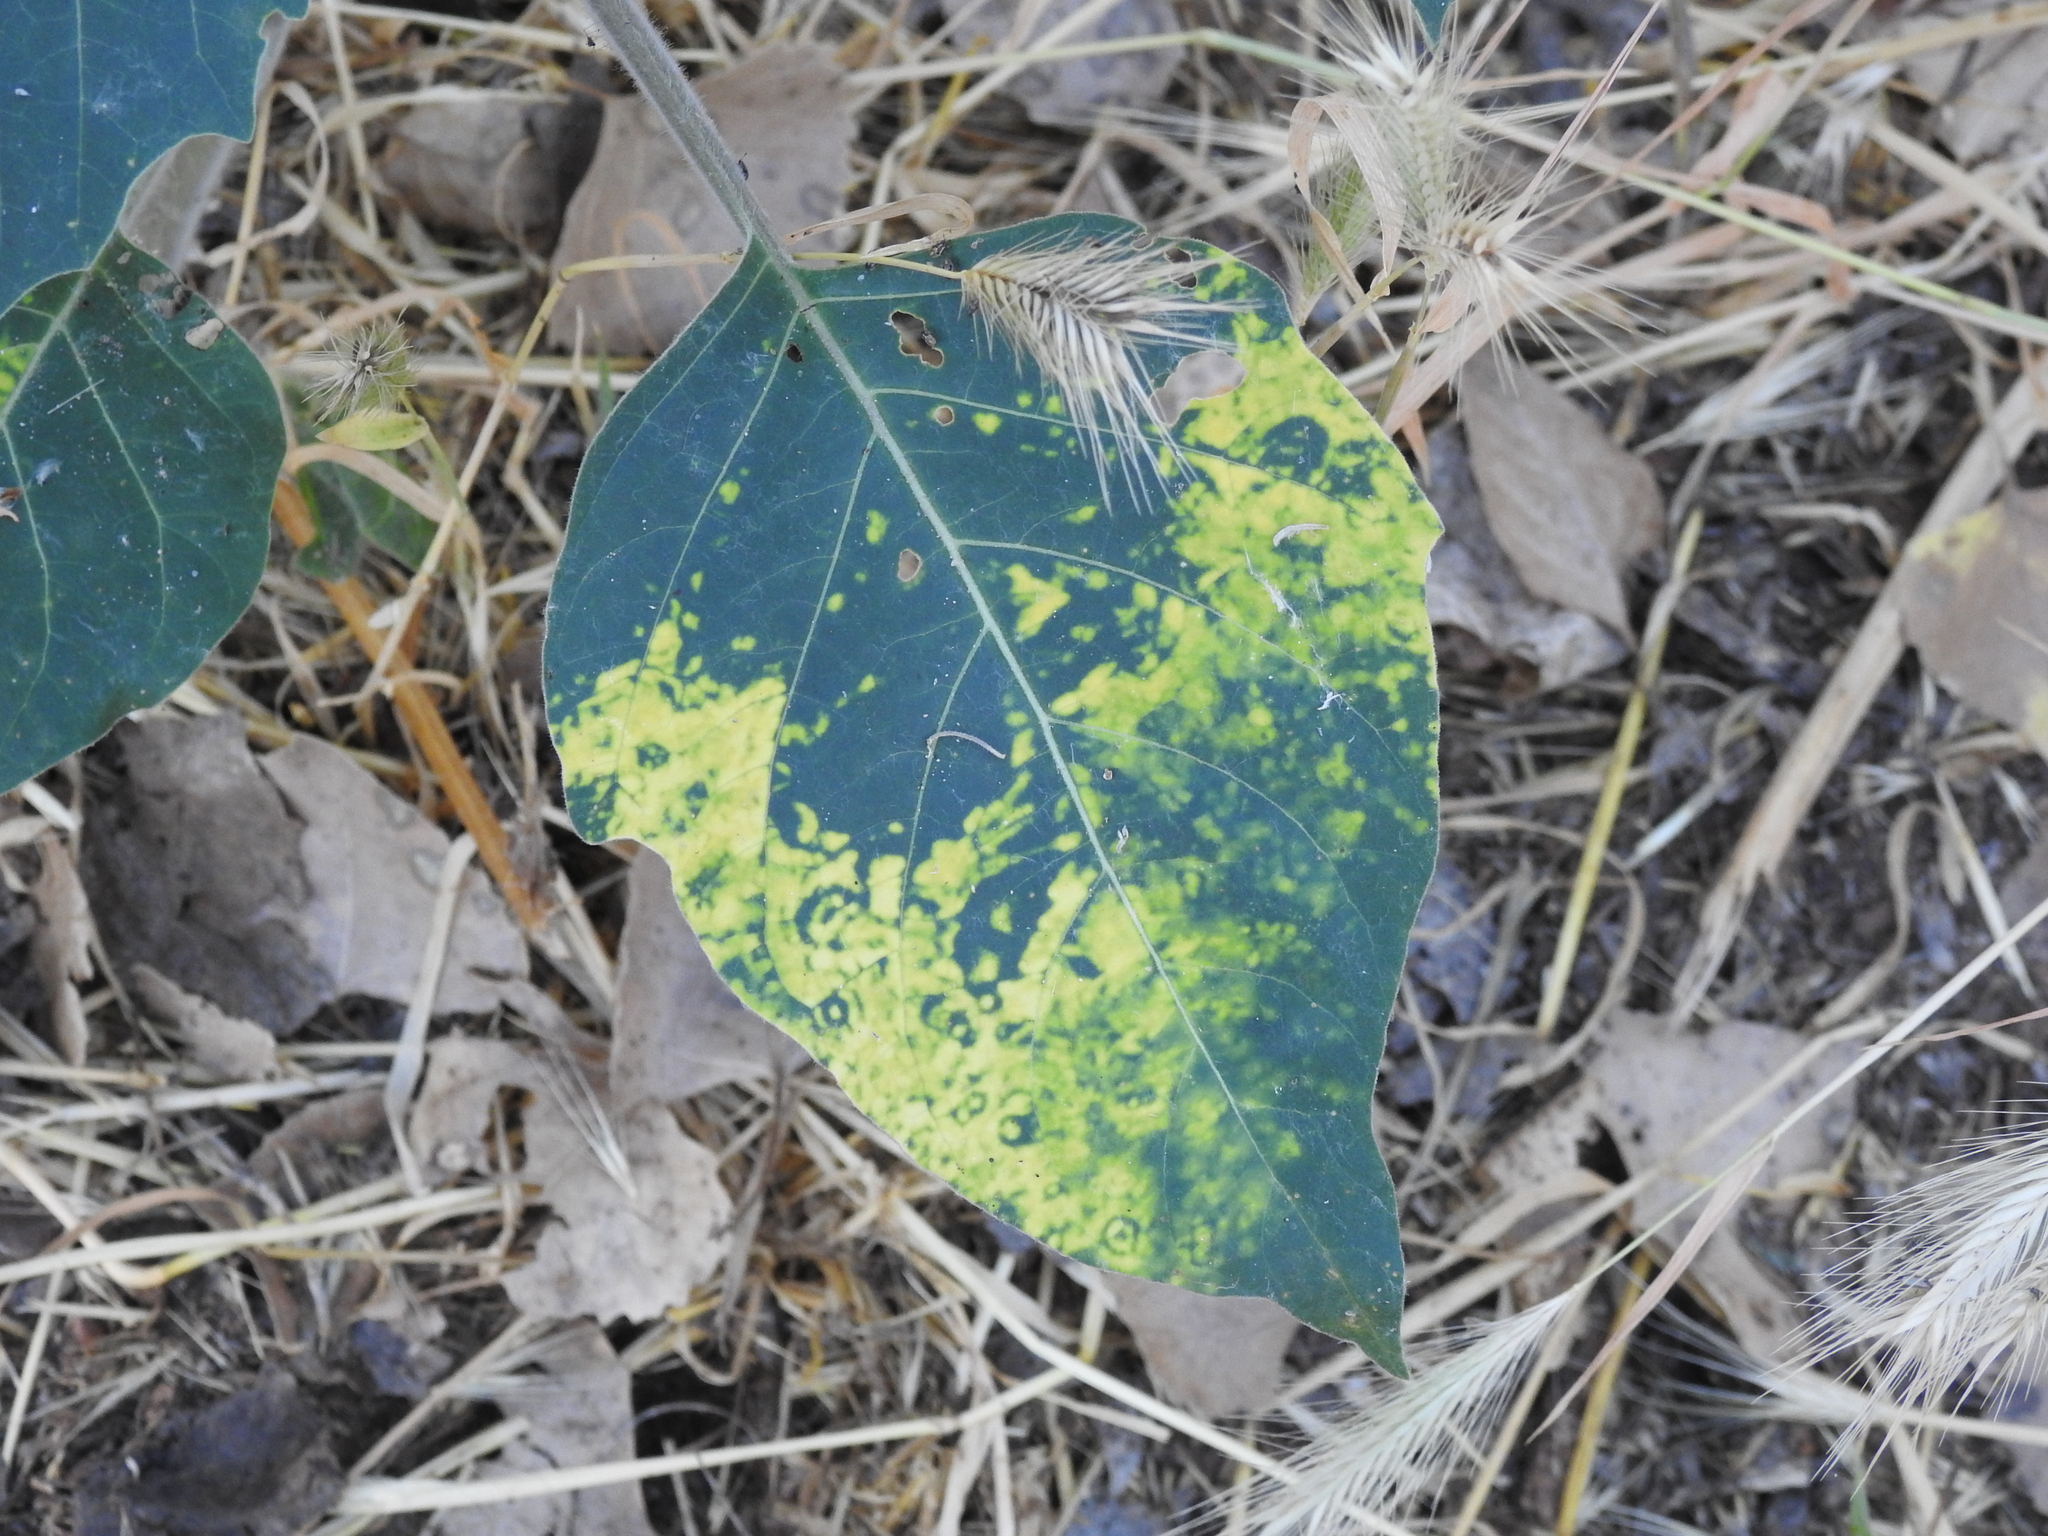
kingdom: Plantae
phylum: Tracheophyta
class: Magnoliopsida
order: Solanales
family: Solanaceae
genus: Datura
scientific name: Datura wrightii
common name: Sacred thorn-apple
